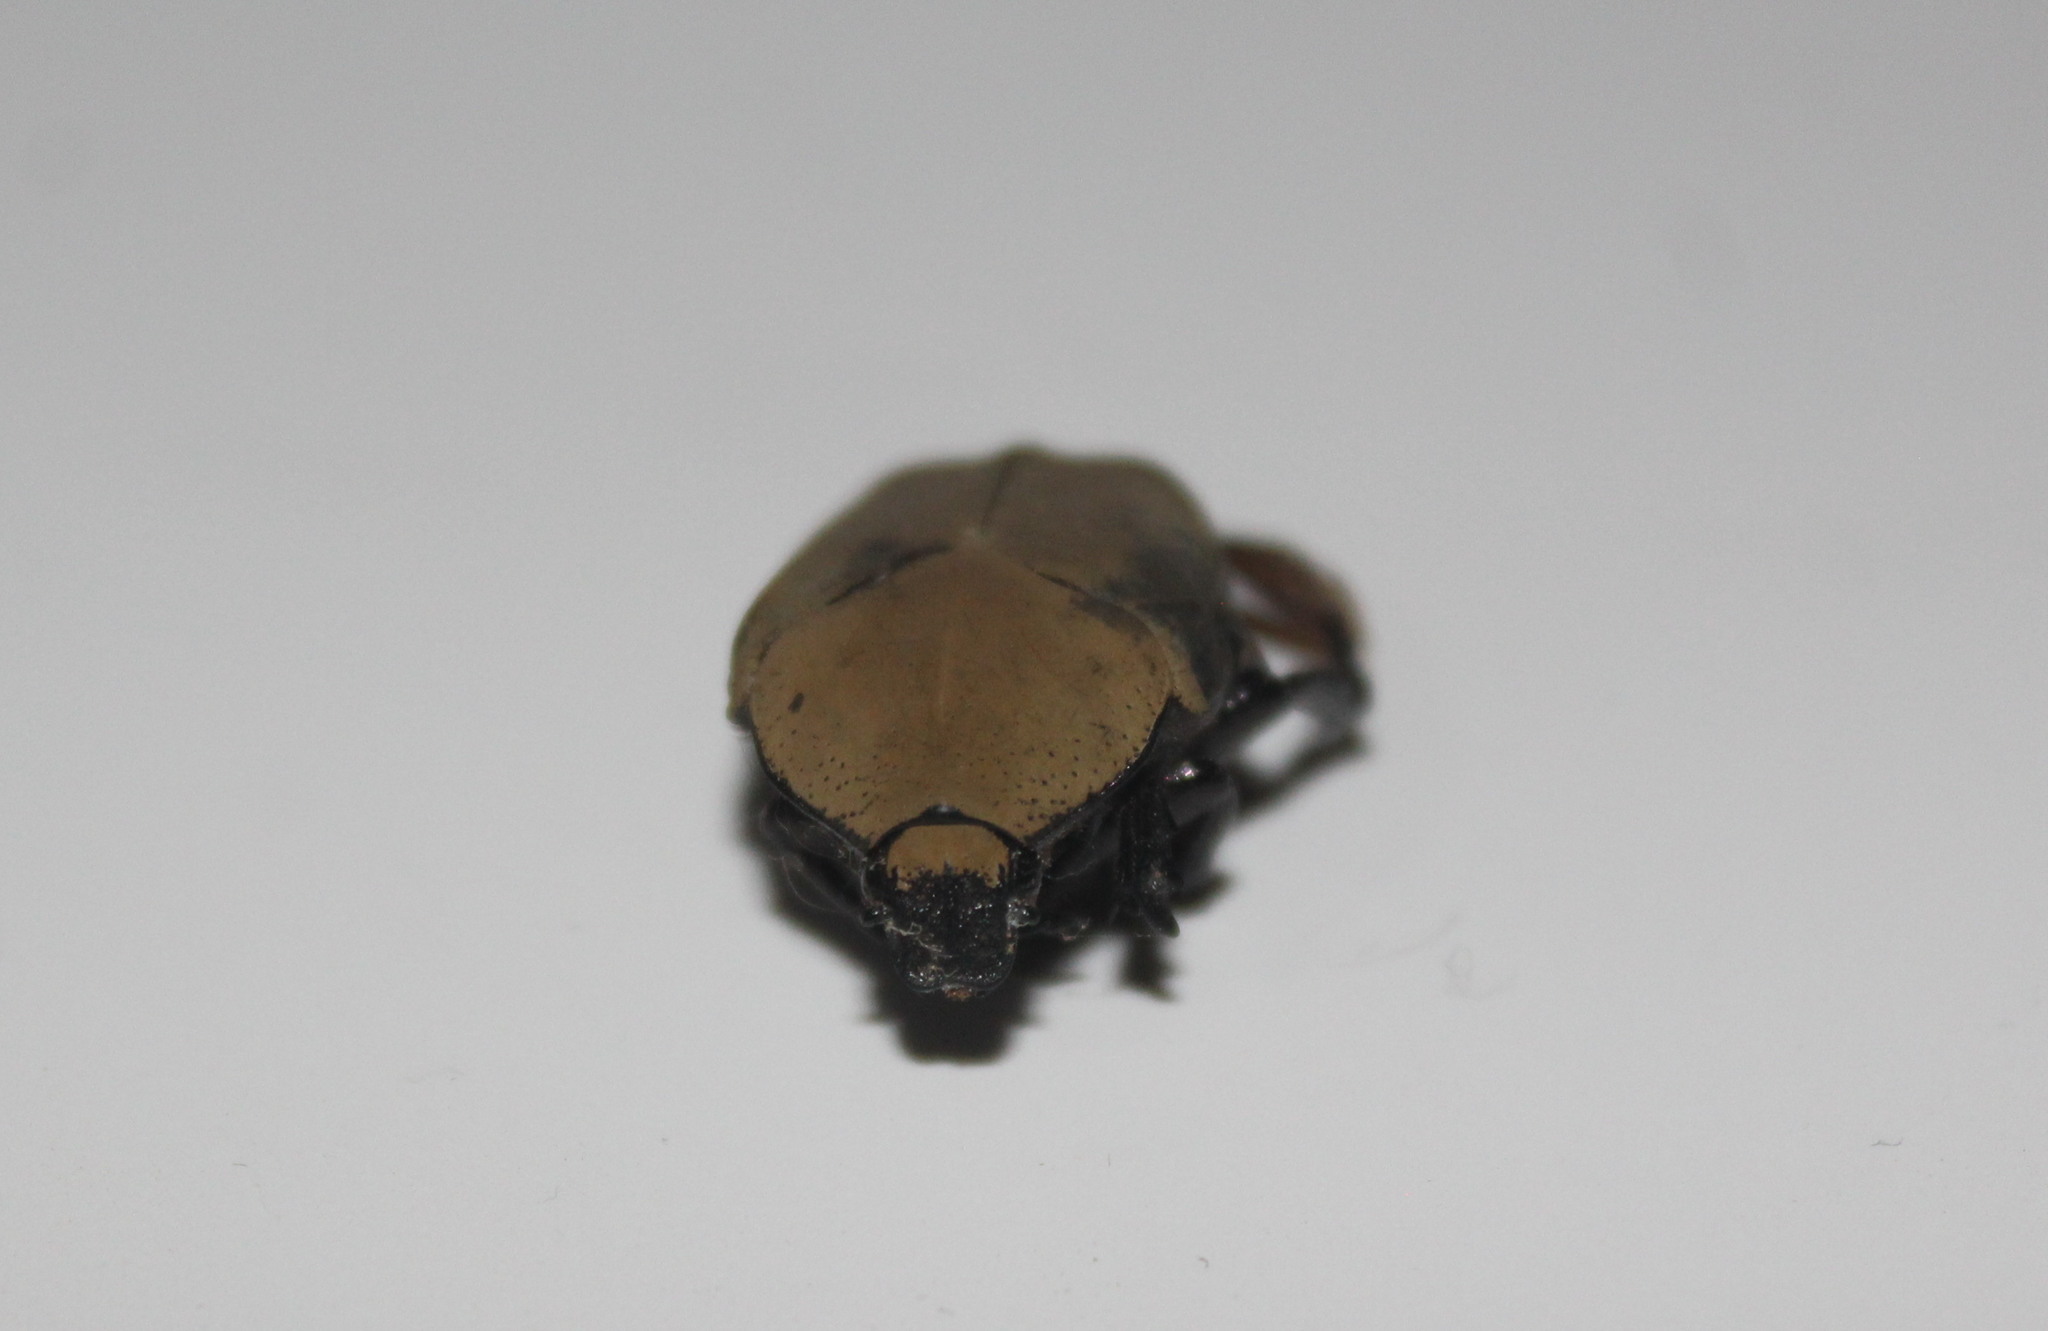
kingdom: Animalia
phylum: Arthropoda
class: Insecta
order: Coleoptera
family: Scarabaeidae
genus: Hologymnetis
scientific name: Hologymnetis cinerea
